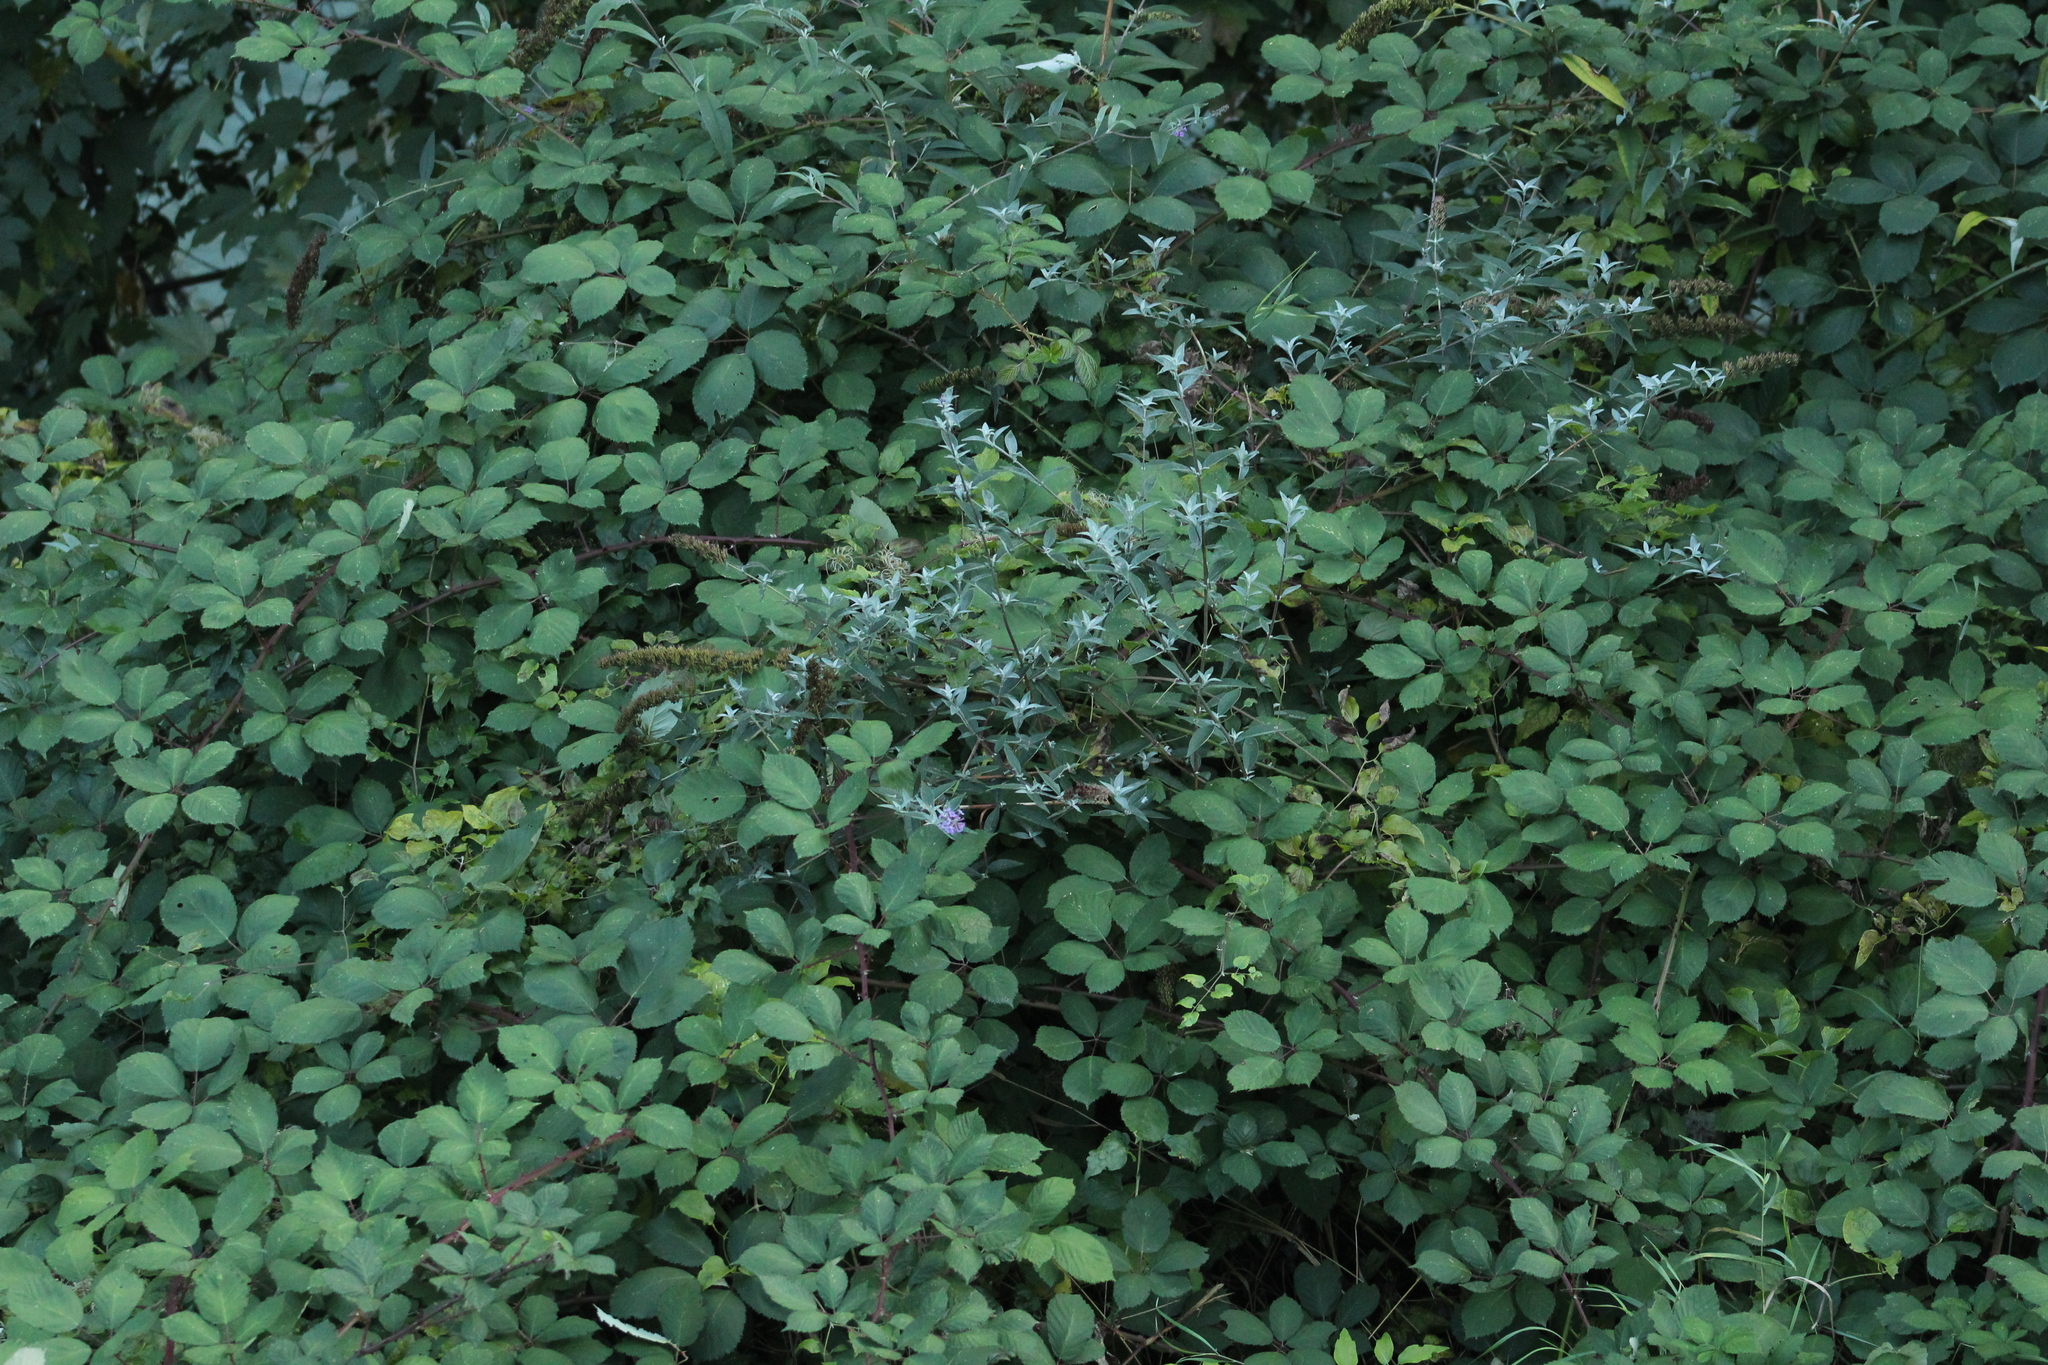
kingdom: Plantae
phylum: Tracheophyta
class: Magnoliopsida
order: Lamiales
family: Scrophulariaceae
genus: Buddleja
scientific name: Buddleja davidii
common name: Butterfly-bush
